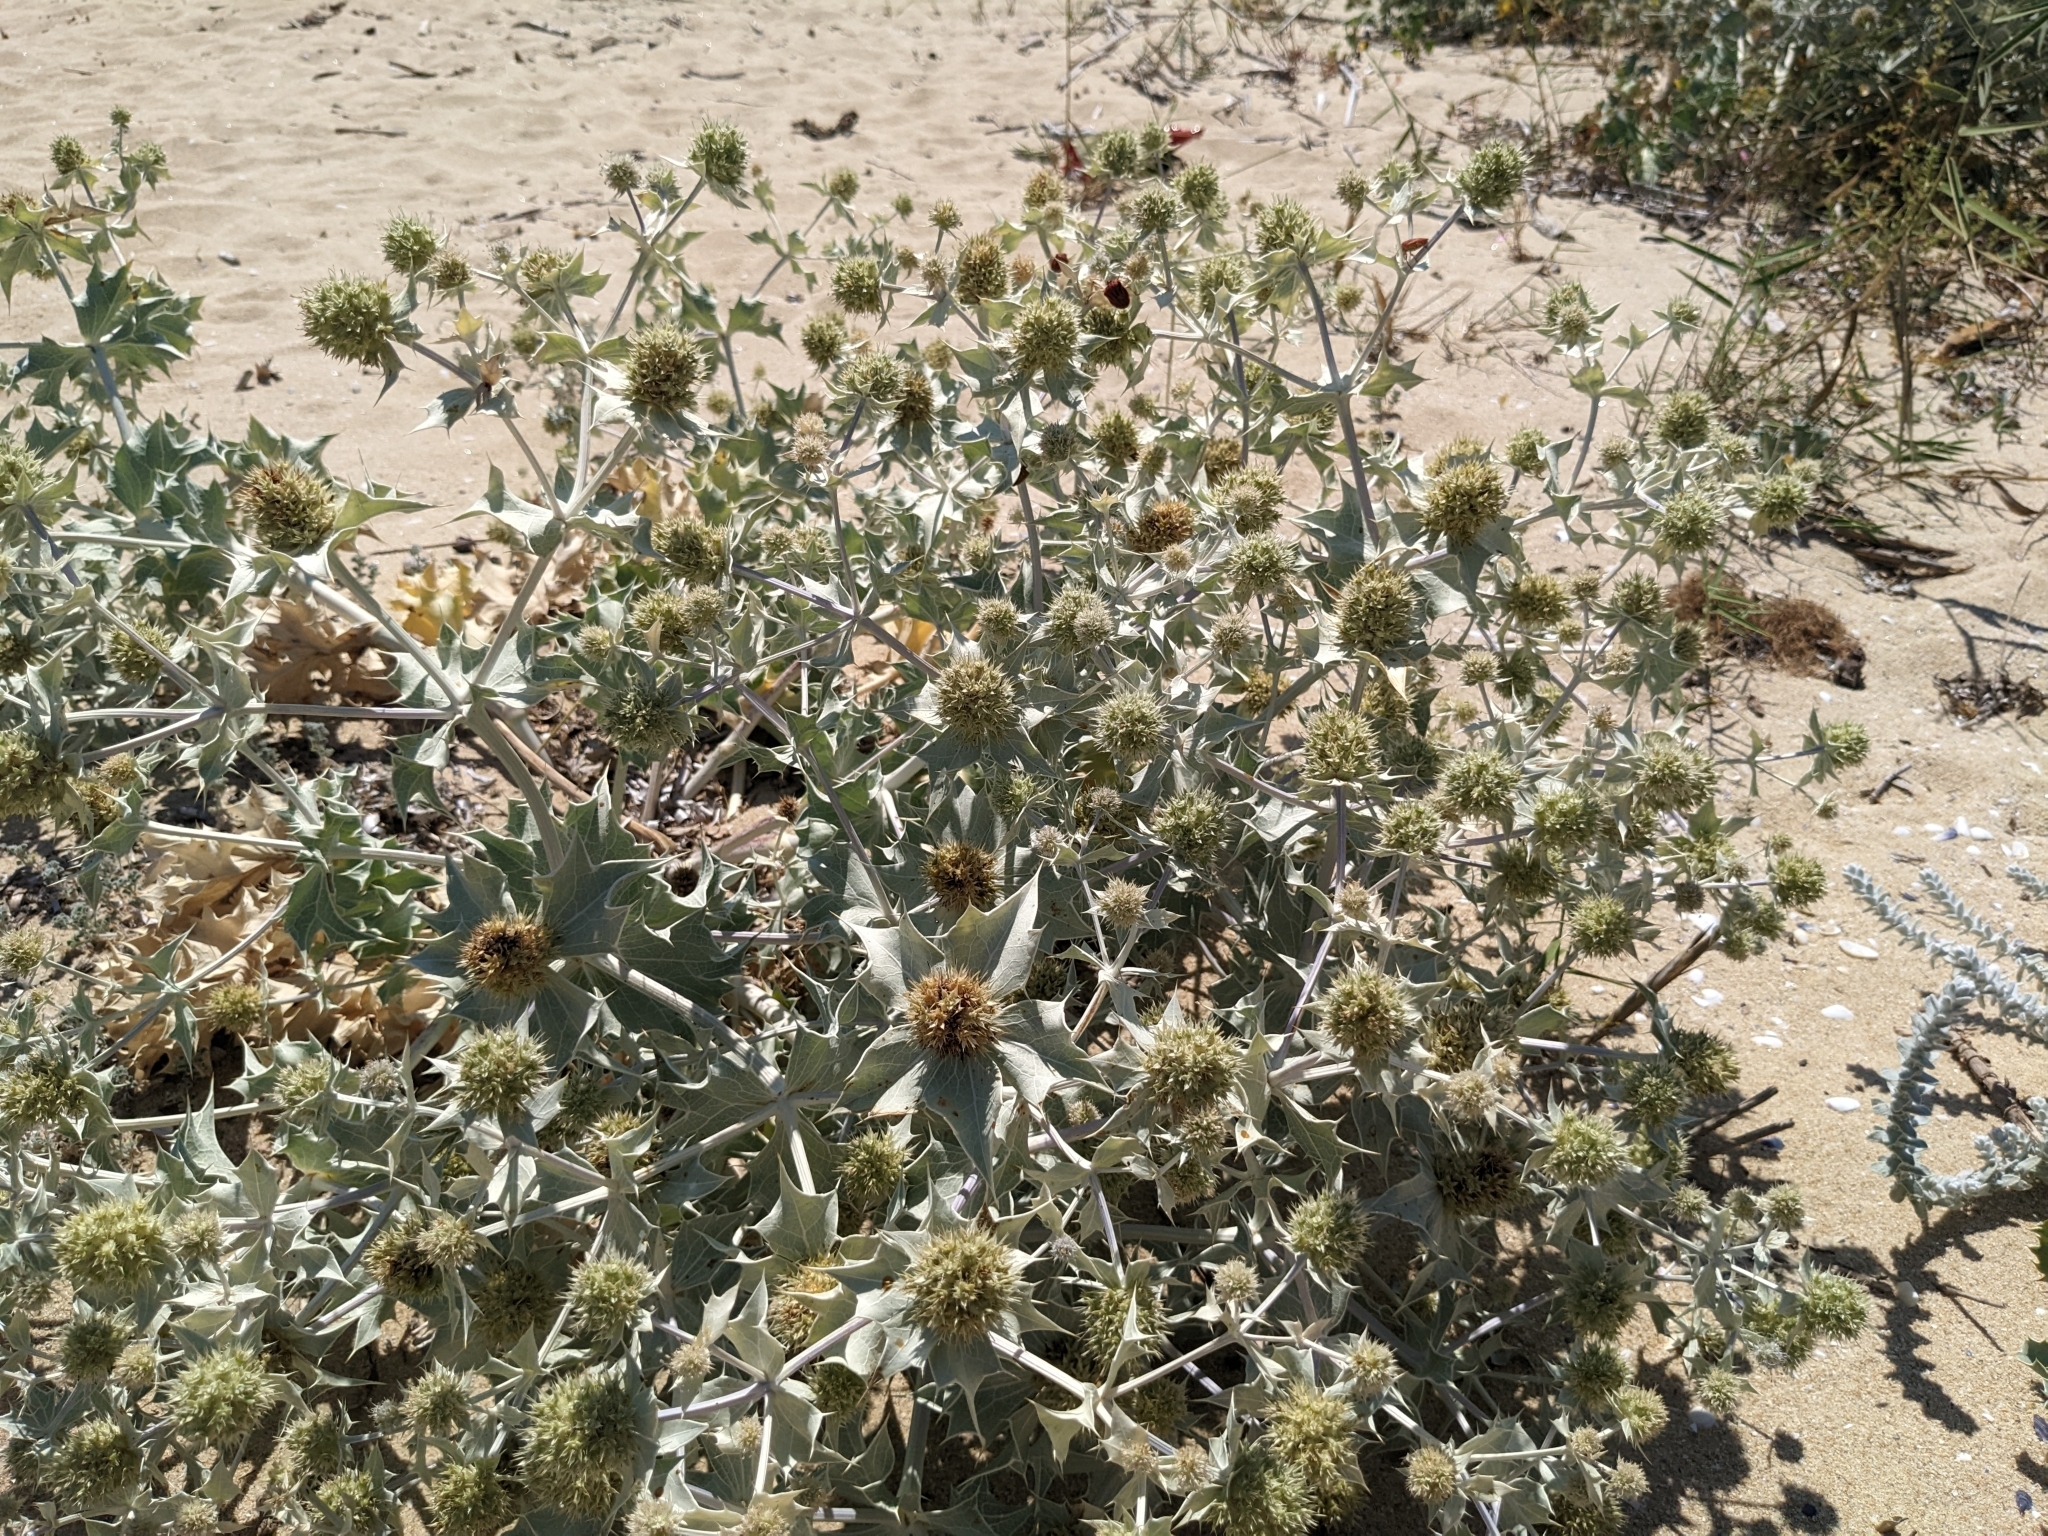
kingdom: Plantae
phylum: Tracheophyta
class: Magnoliopsida
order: Apiales
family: Apiaceae
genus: Eryngium
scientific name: Eryngium maritimum
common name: Sea-holly
